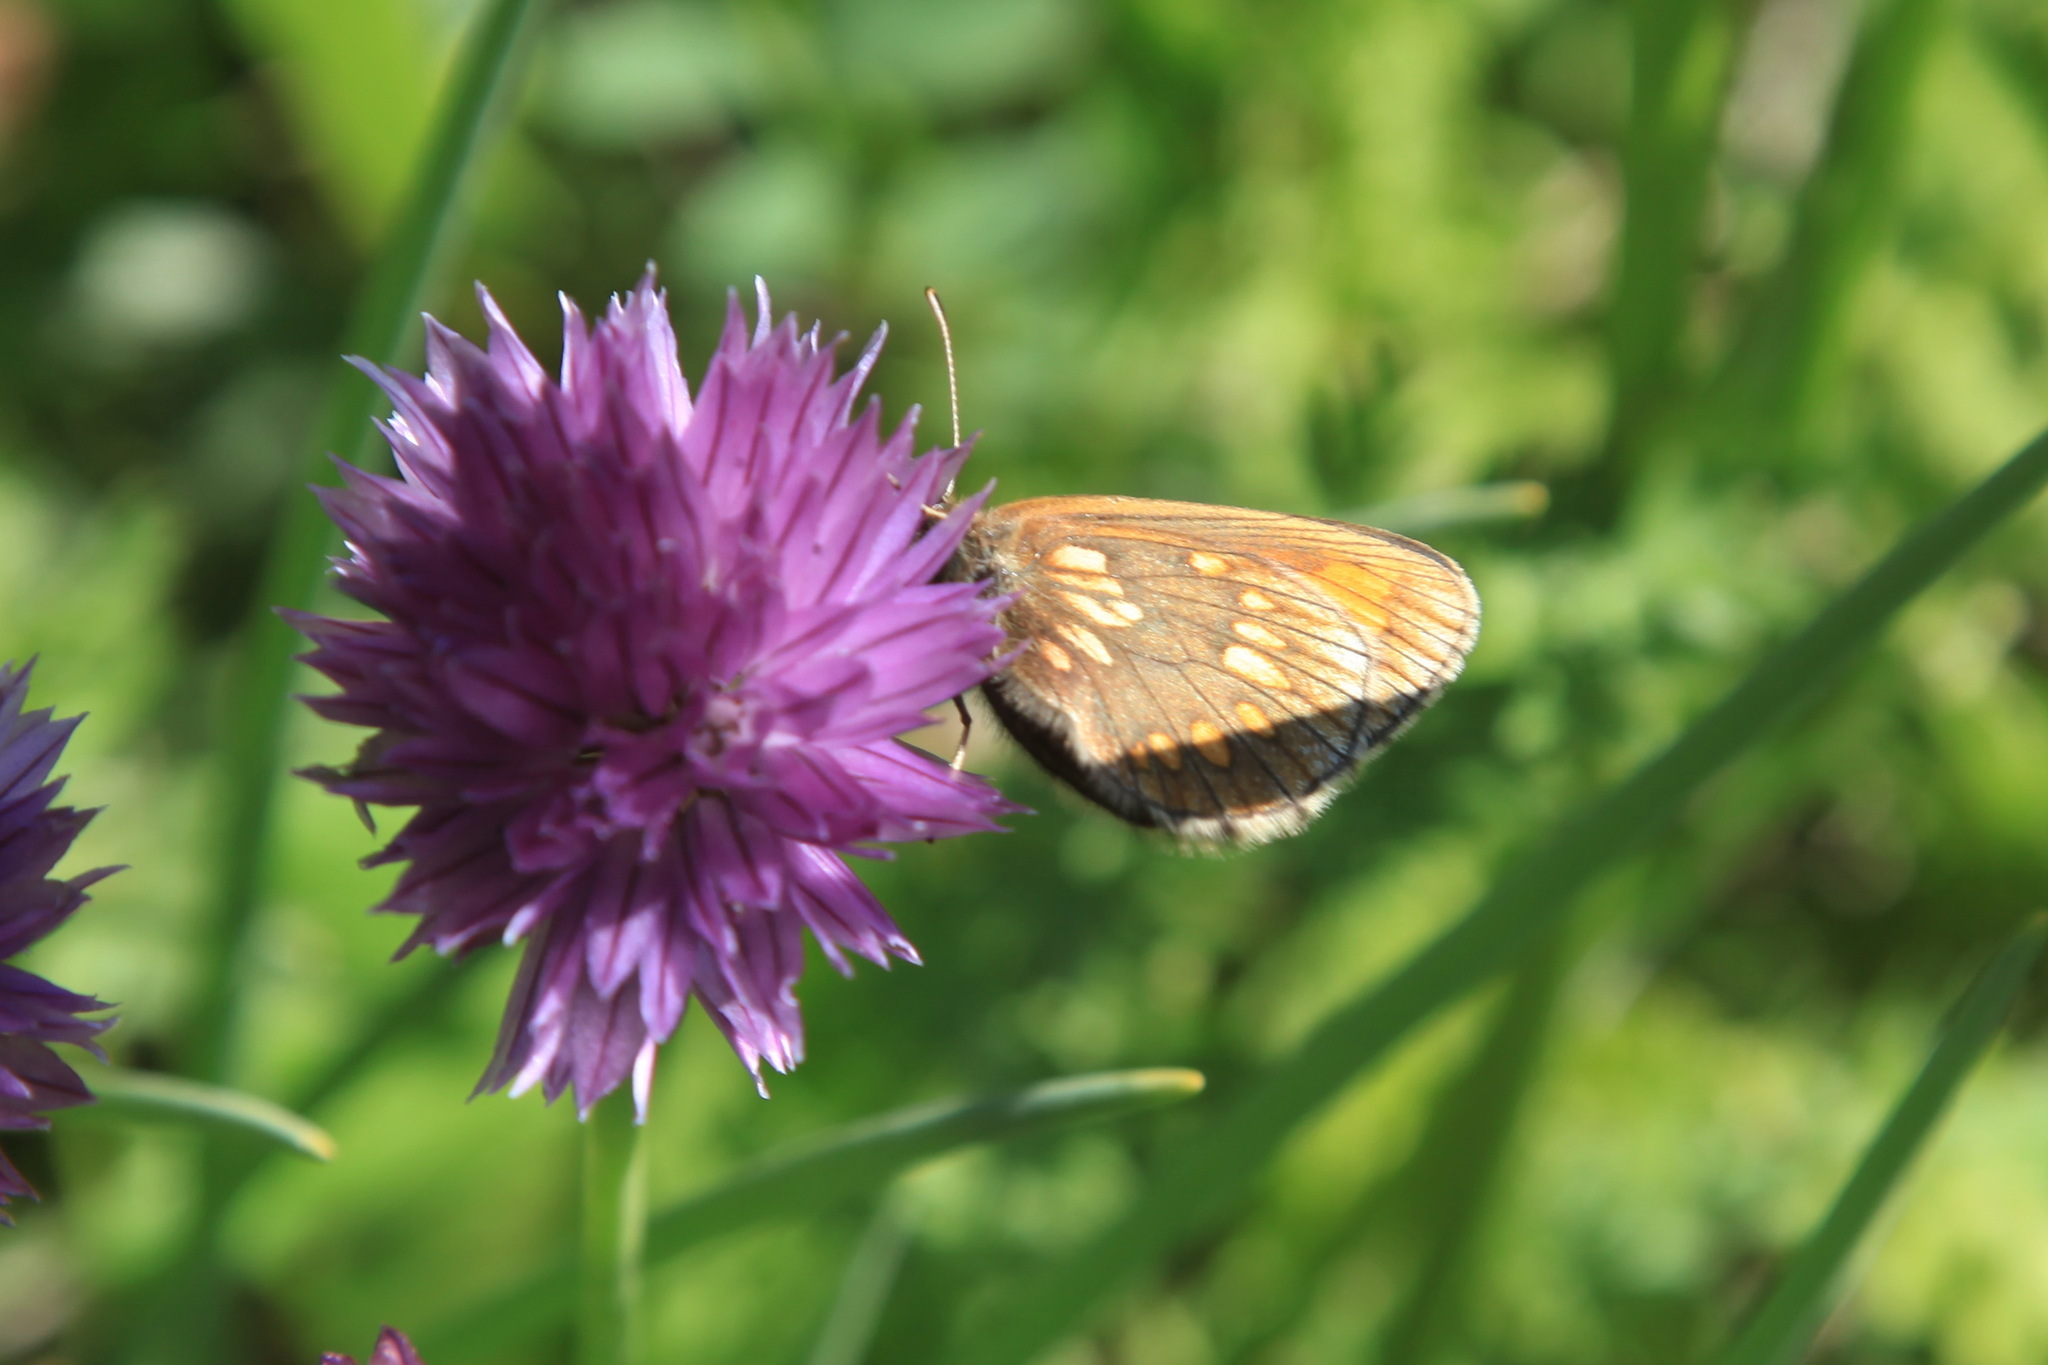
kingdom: Animalia
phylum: Arthropoda
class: Insecta
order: Lepidoptera
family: Nymphalidae
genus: Erebia
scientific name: Erebia maurisius
